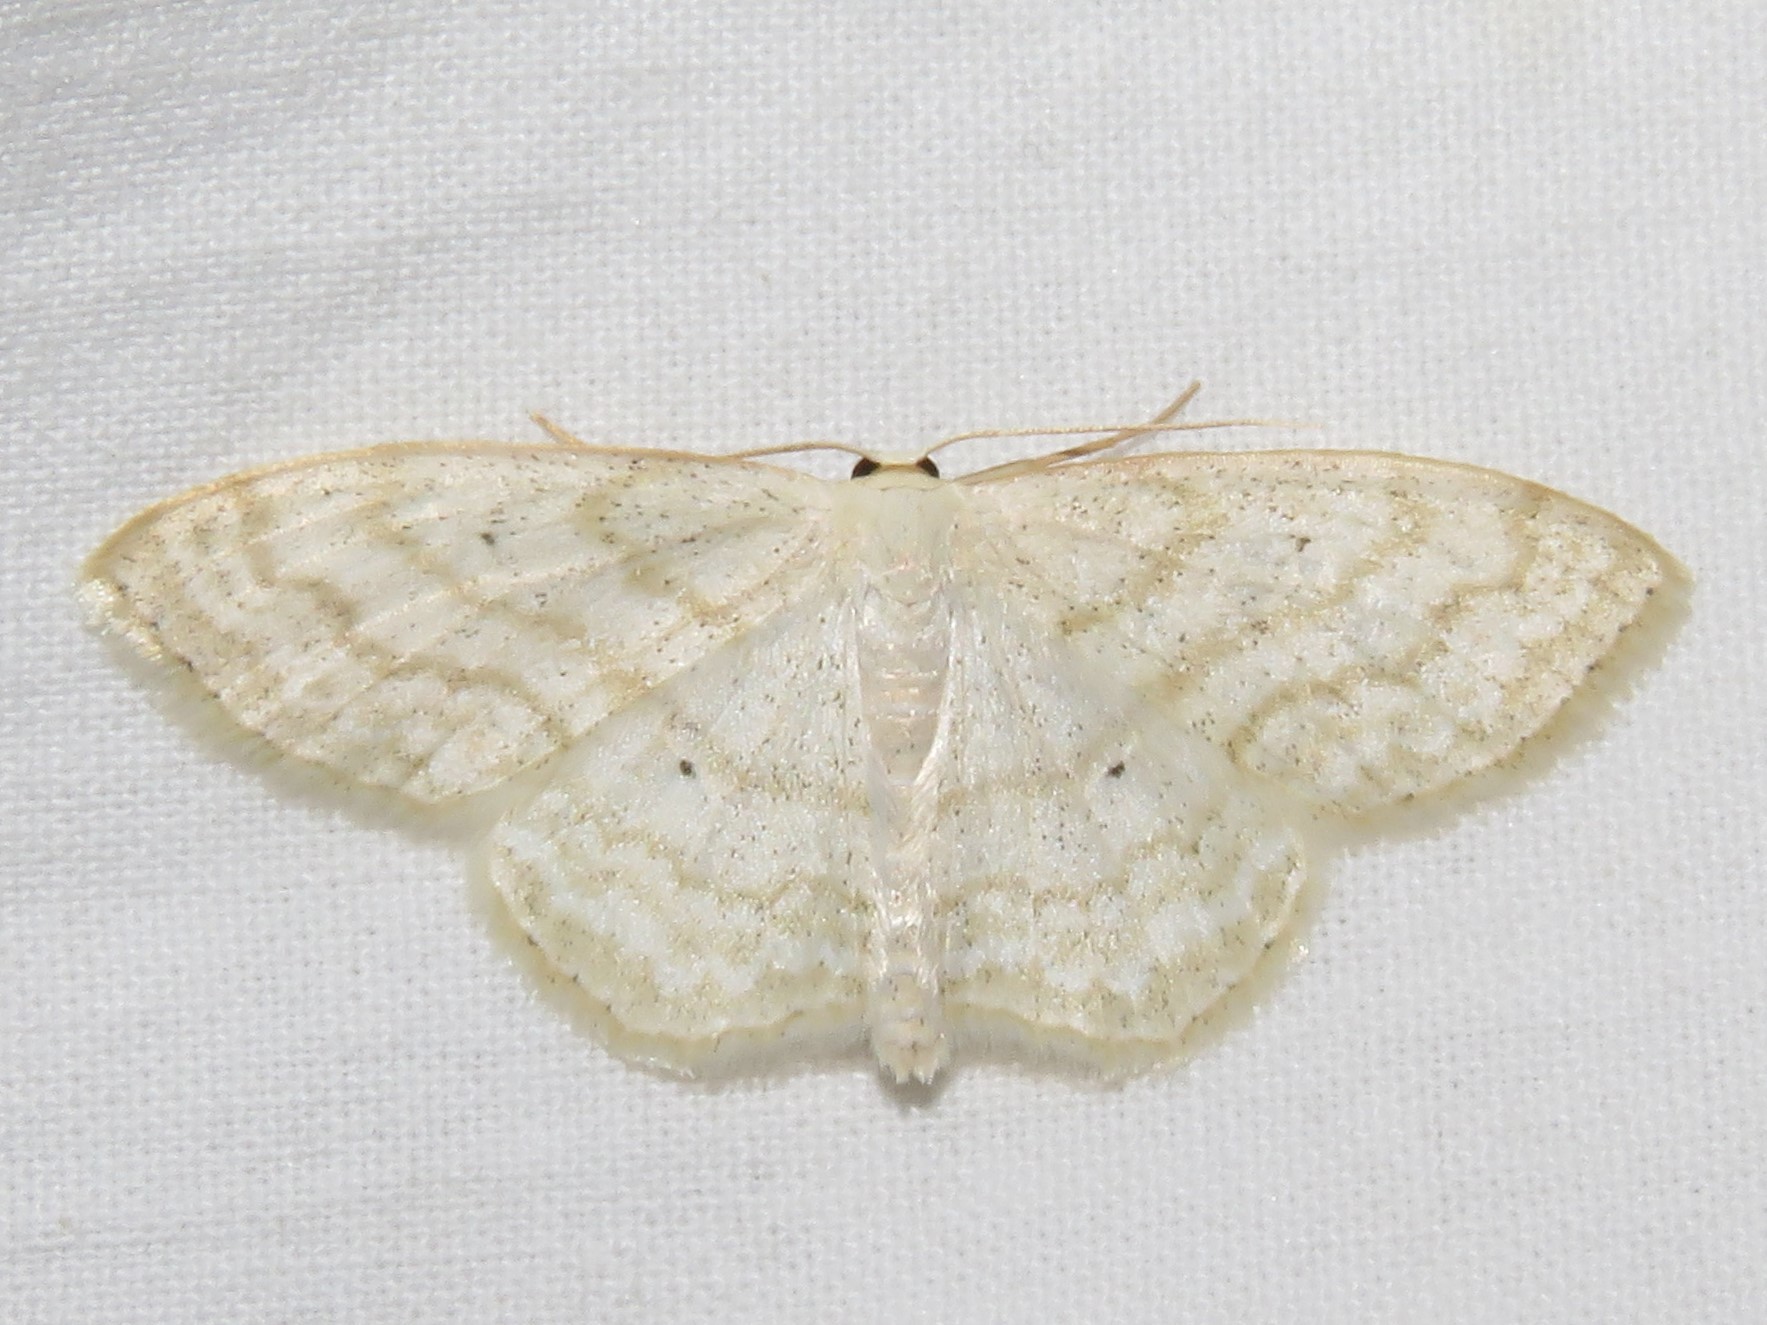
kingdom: Animalia
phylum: Arthropoda
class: Insecta
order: Lepidoptera
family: Geometridae
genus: Scopula
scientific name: Scopula limboundata
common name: Large lace border
